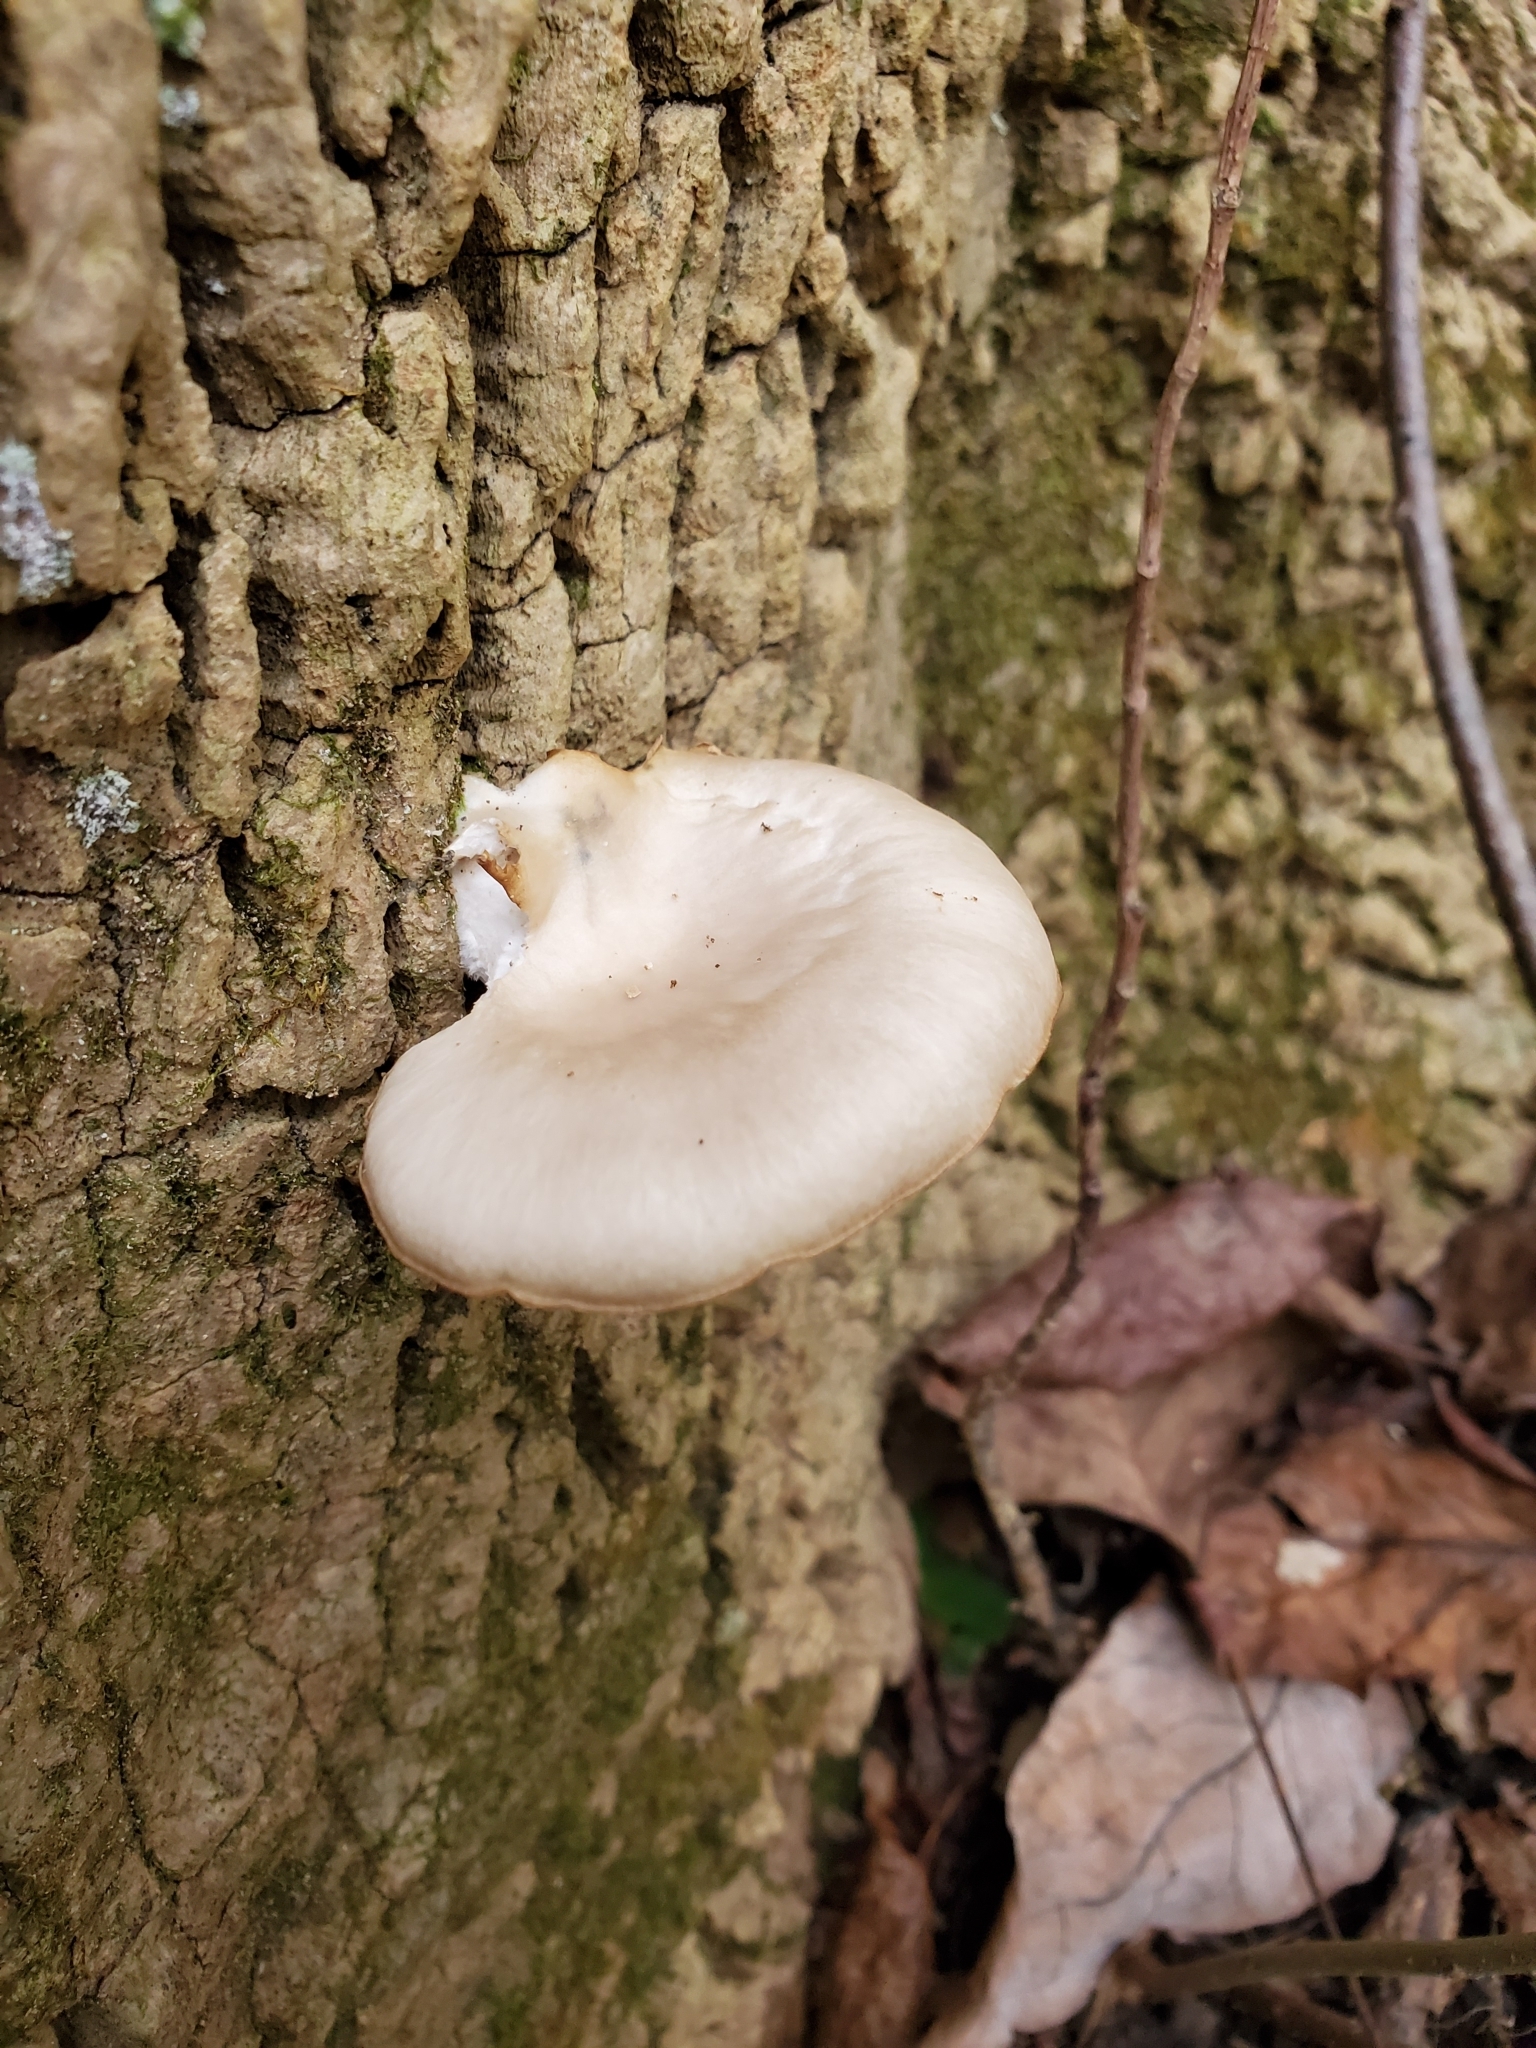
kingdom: Fungi
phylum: Basidiomycota
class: Agaricomycetes
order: Agaricales
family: Pleurotaceae
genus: Pleurotus
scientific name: Pleurotus ostreatus
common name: Oyster mushroom
